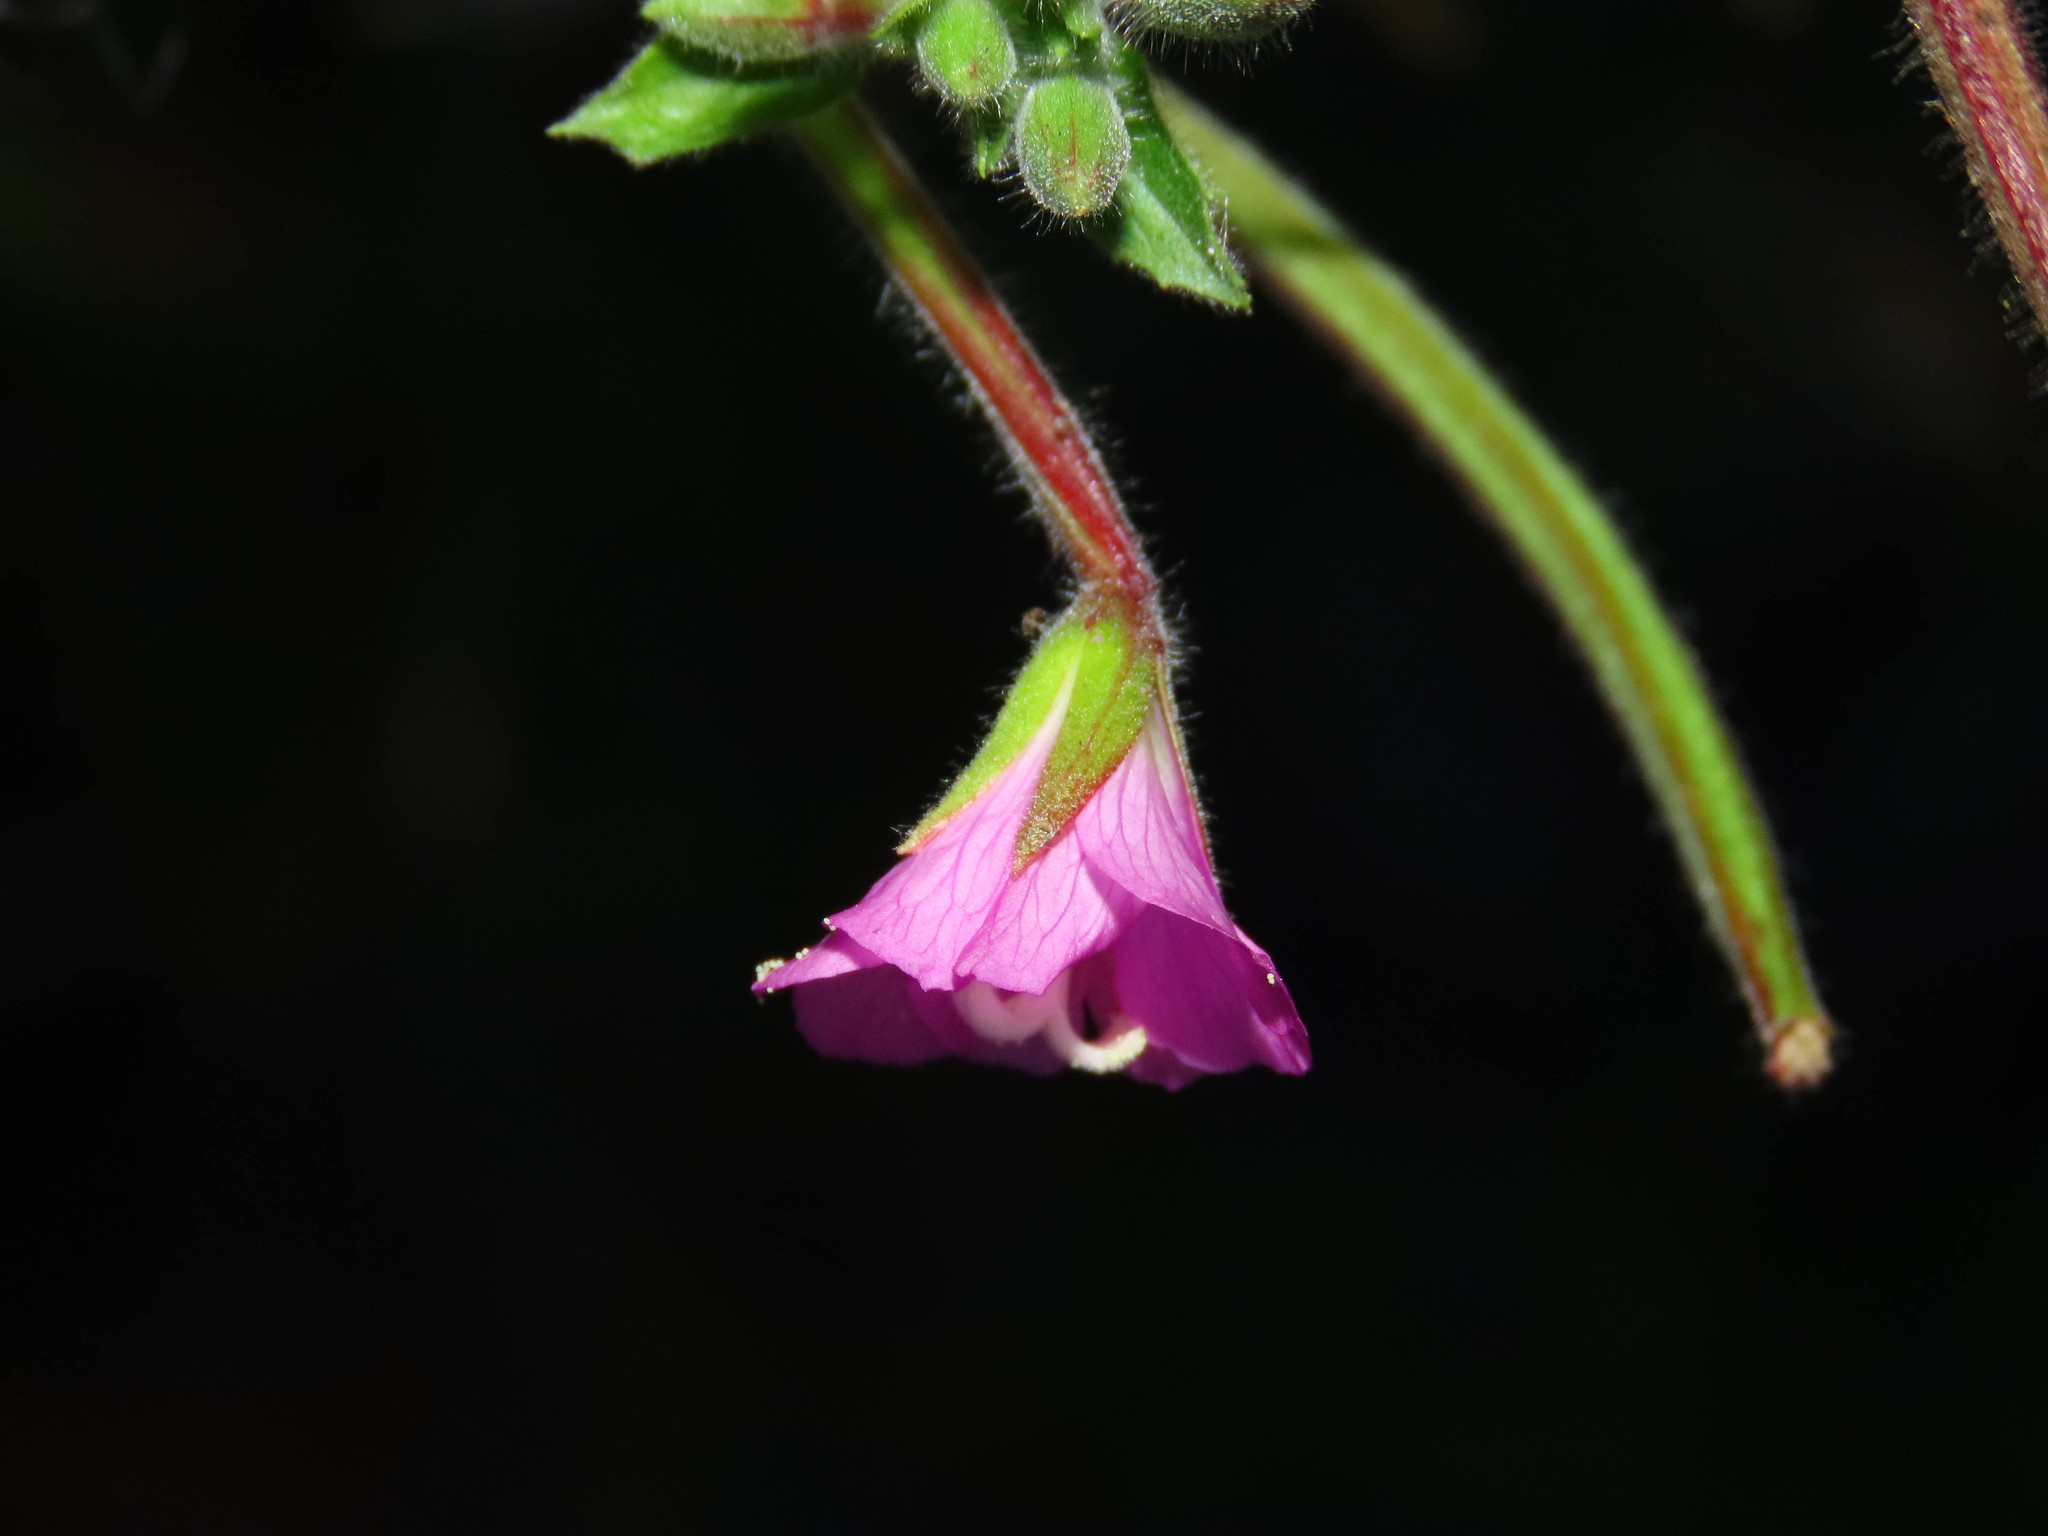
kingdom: Plantae
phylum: Tracheophyta
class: Magnoliopsida
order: Myrtales
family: Onagraceae
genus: Epilobium
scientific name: Epilobium hirsutum
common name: Great willowherb
